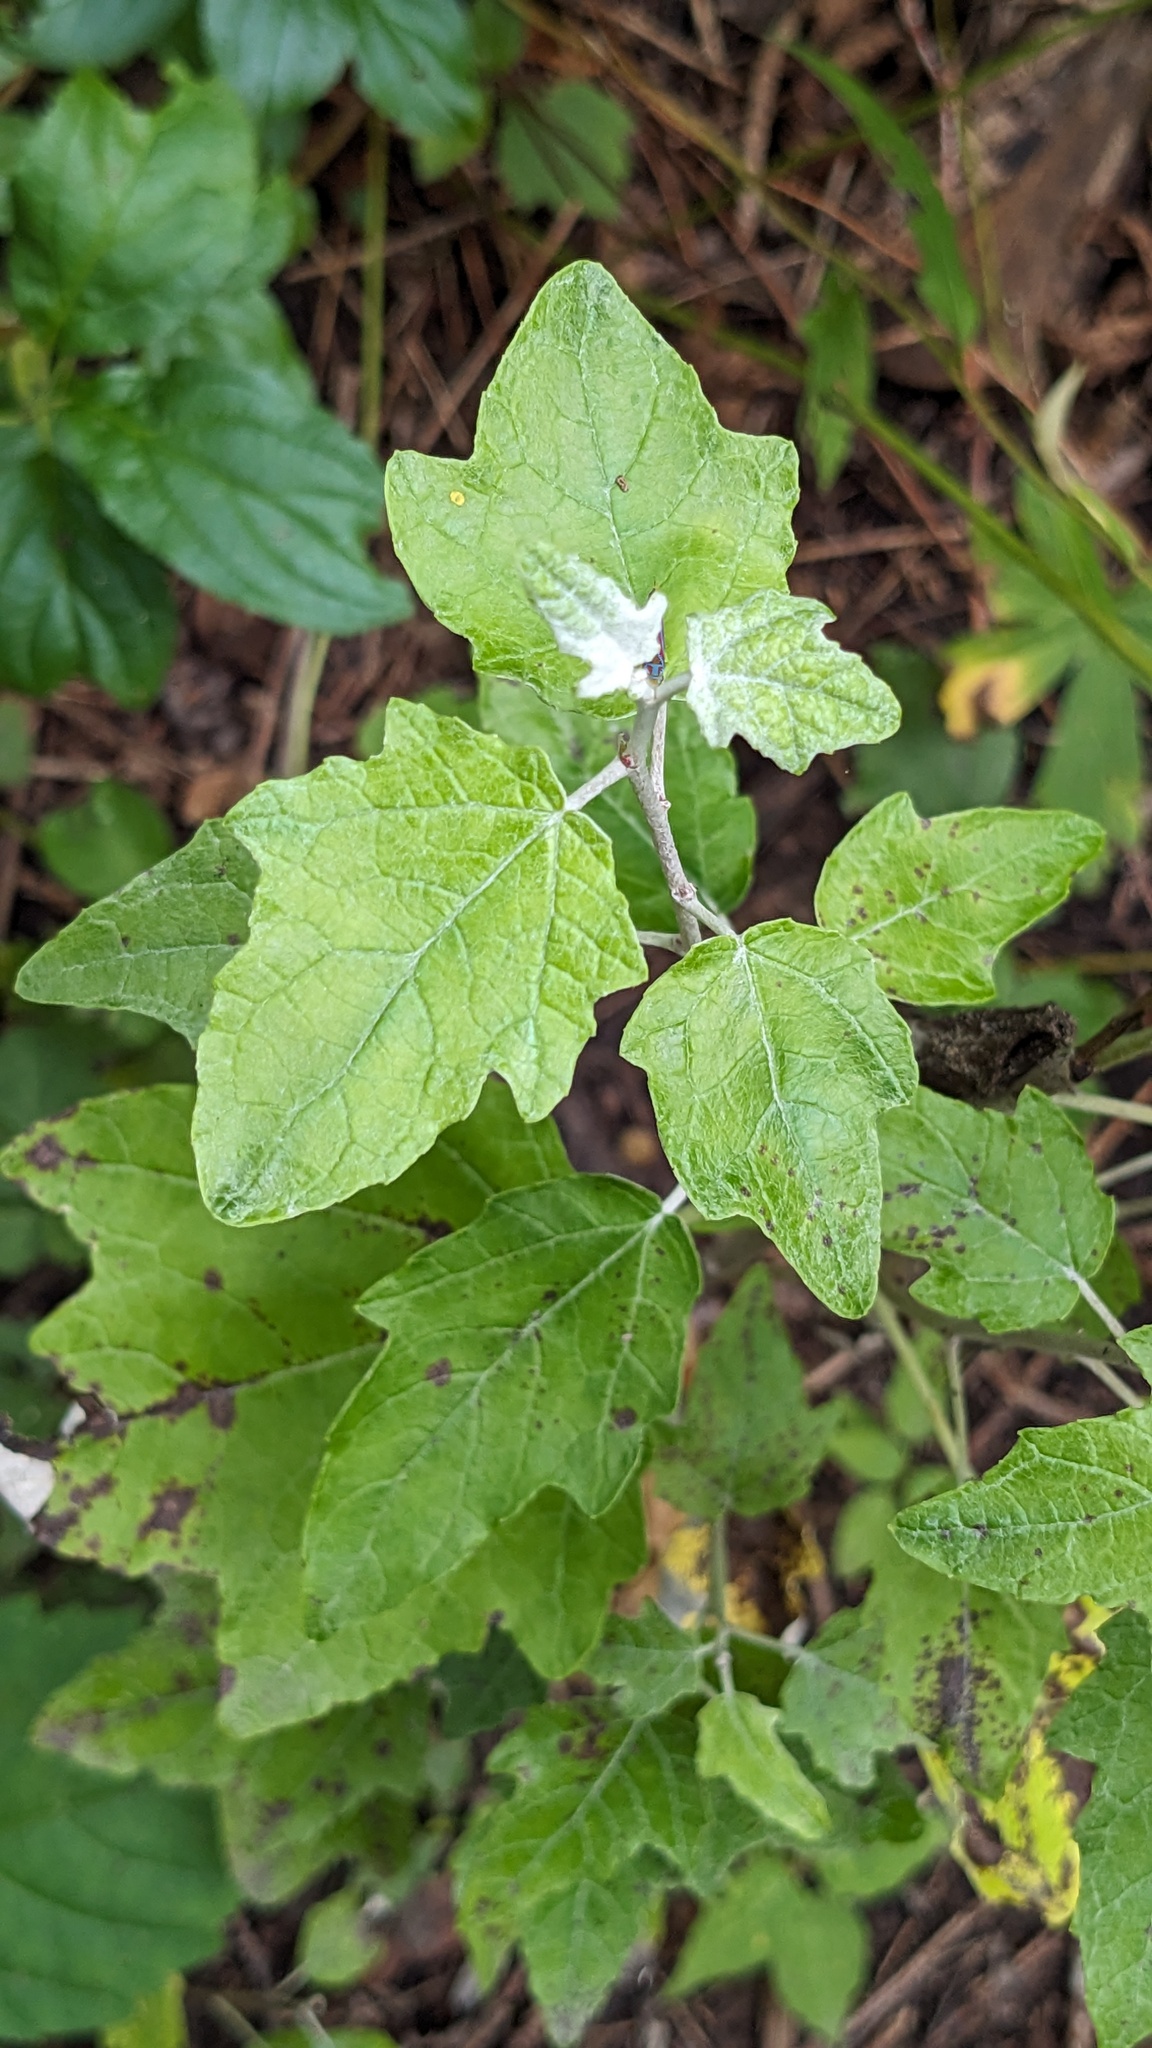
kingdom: Plantae
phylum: Tracheophyta
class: Magnoliopsida
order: Malpighiales
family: Salicaceae
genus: Populus
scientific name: Populus alba
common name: White poplar
